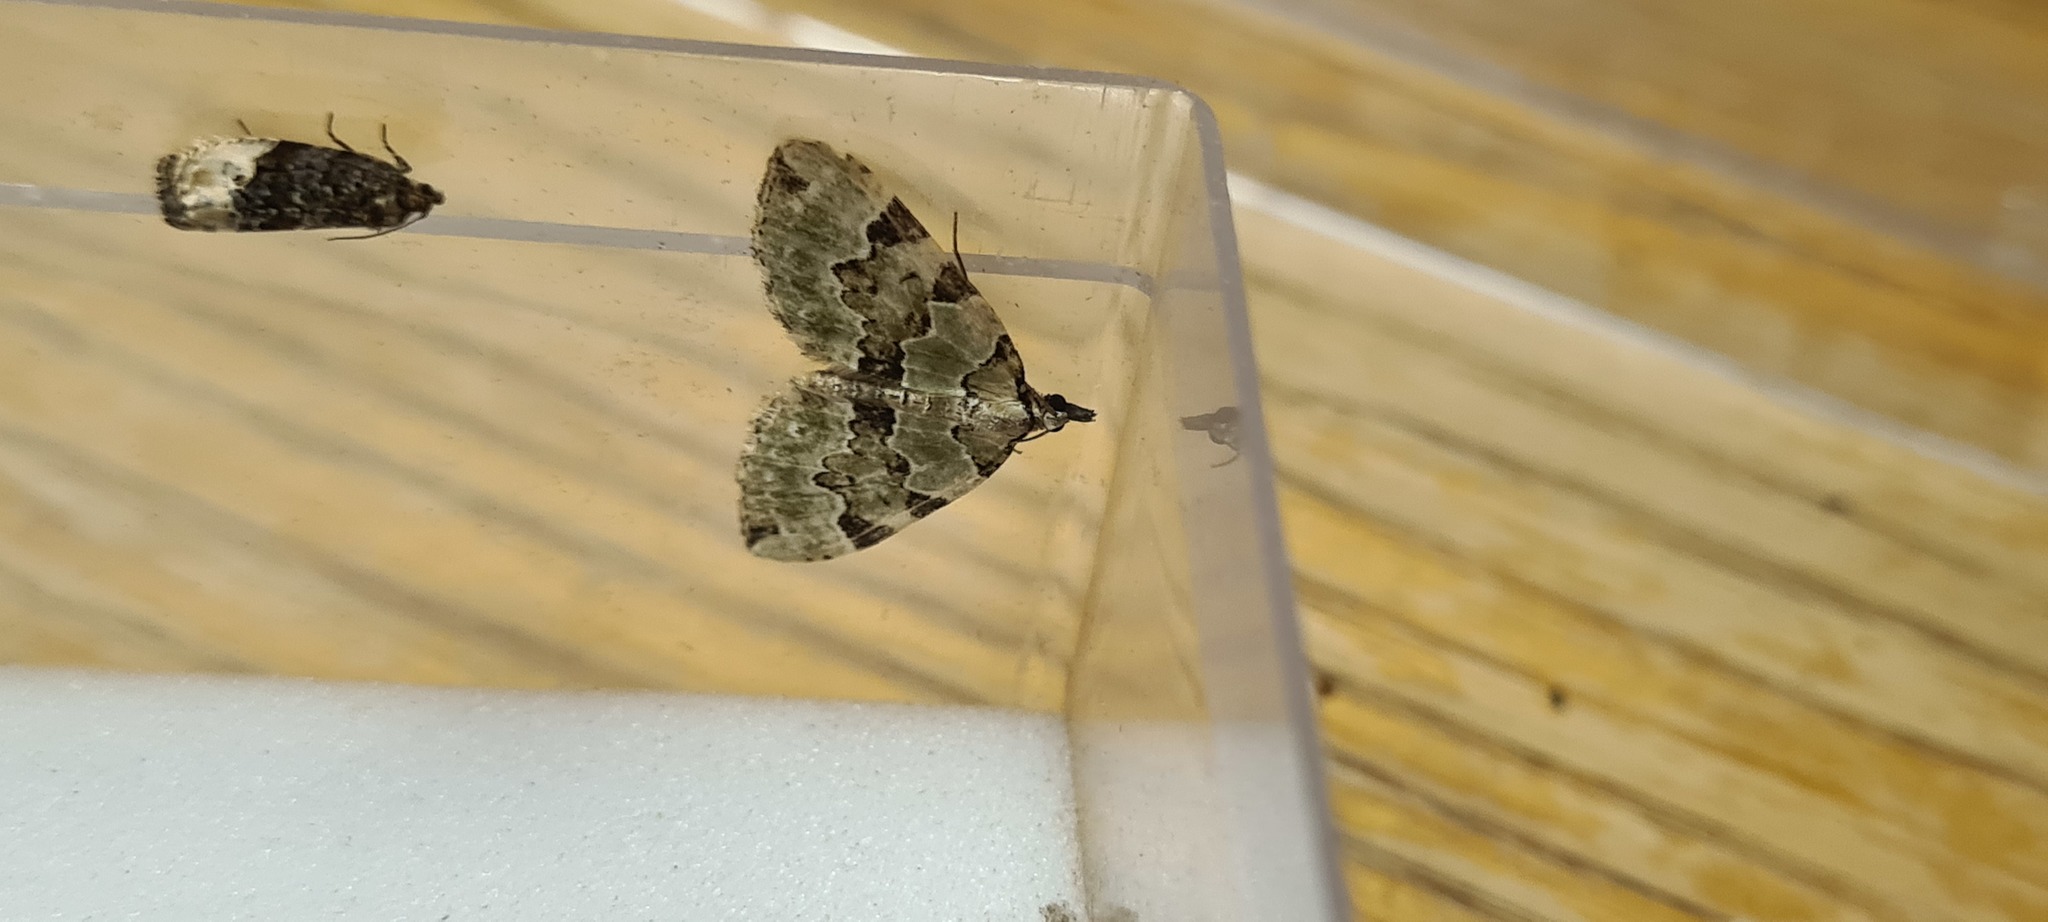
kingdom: Animalia
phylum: Arthropoda
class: Insecta
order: Lepidoptera
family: Geometridae
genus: Colostygia
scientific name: Colostygia pectinataria
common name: Green carpet
